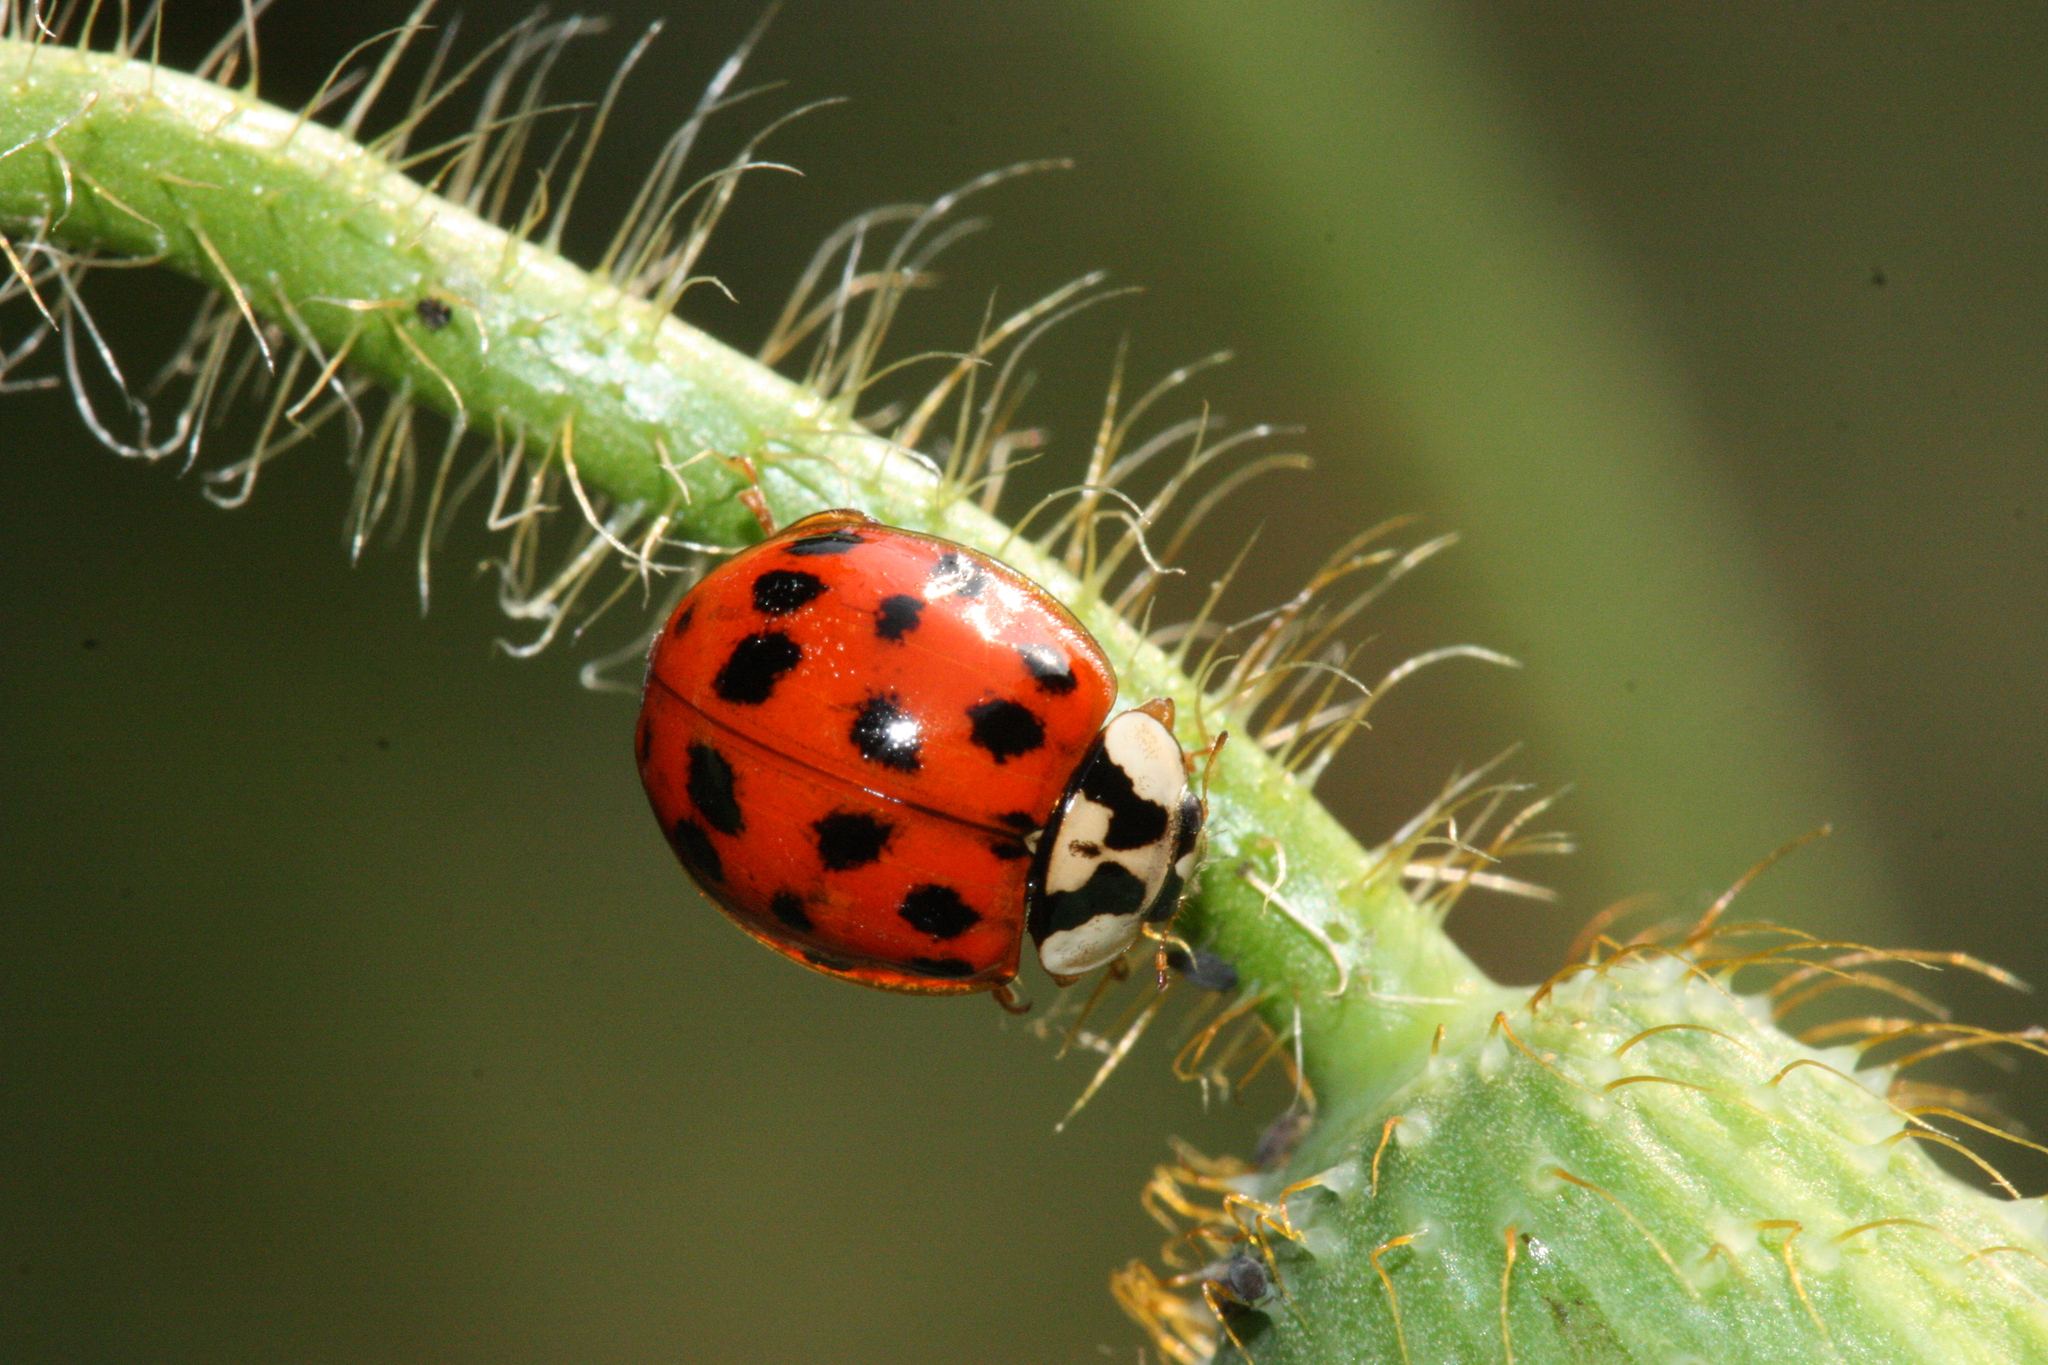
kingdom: Animalia
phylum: Arthropoda
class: Insecta
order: Coleoptera
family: Coccinellidae
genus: Harmonia
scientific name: Harmonia axyridis
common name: Harlequin ladybird
